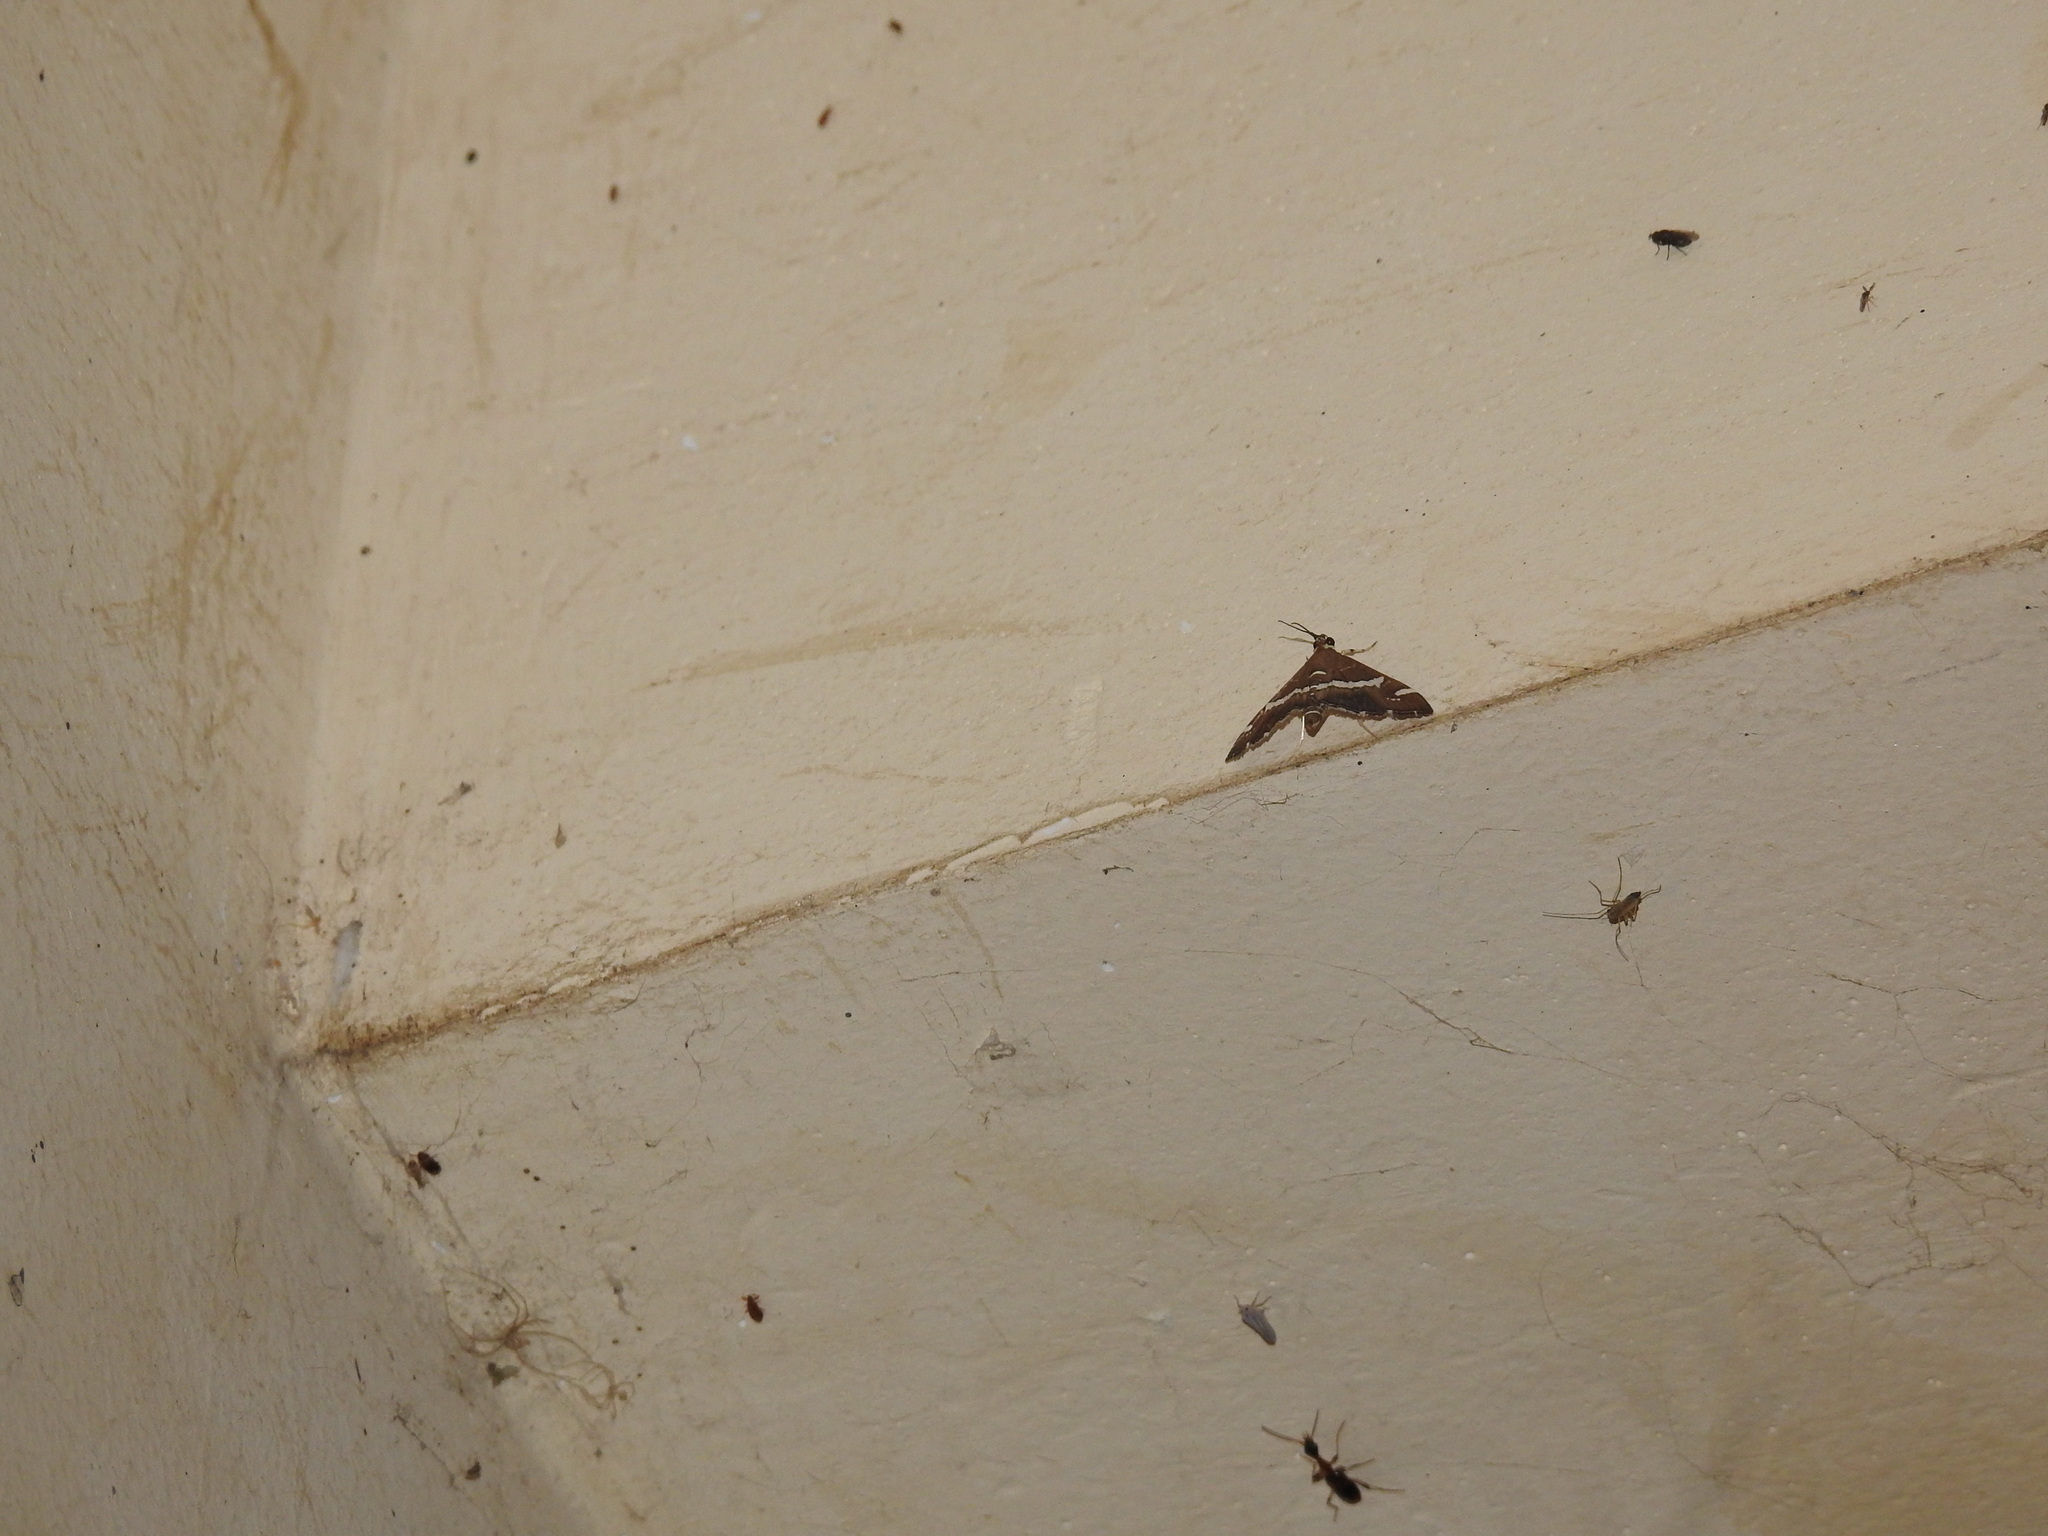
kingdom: Animalia
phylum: Arthropoda
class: Insecta
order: Lepidoptera
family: Crambidae
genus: Spoladea
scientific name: Spoladea recurvalis
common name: Beet webworm moth
